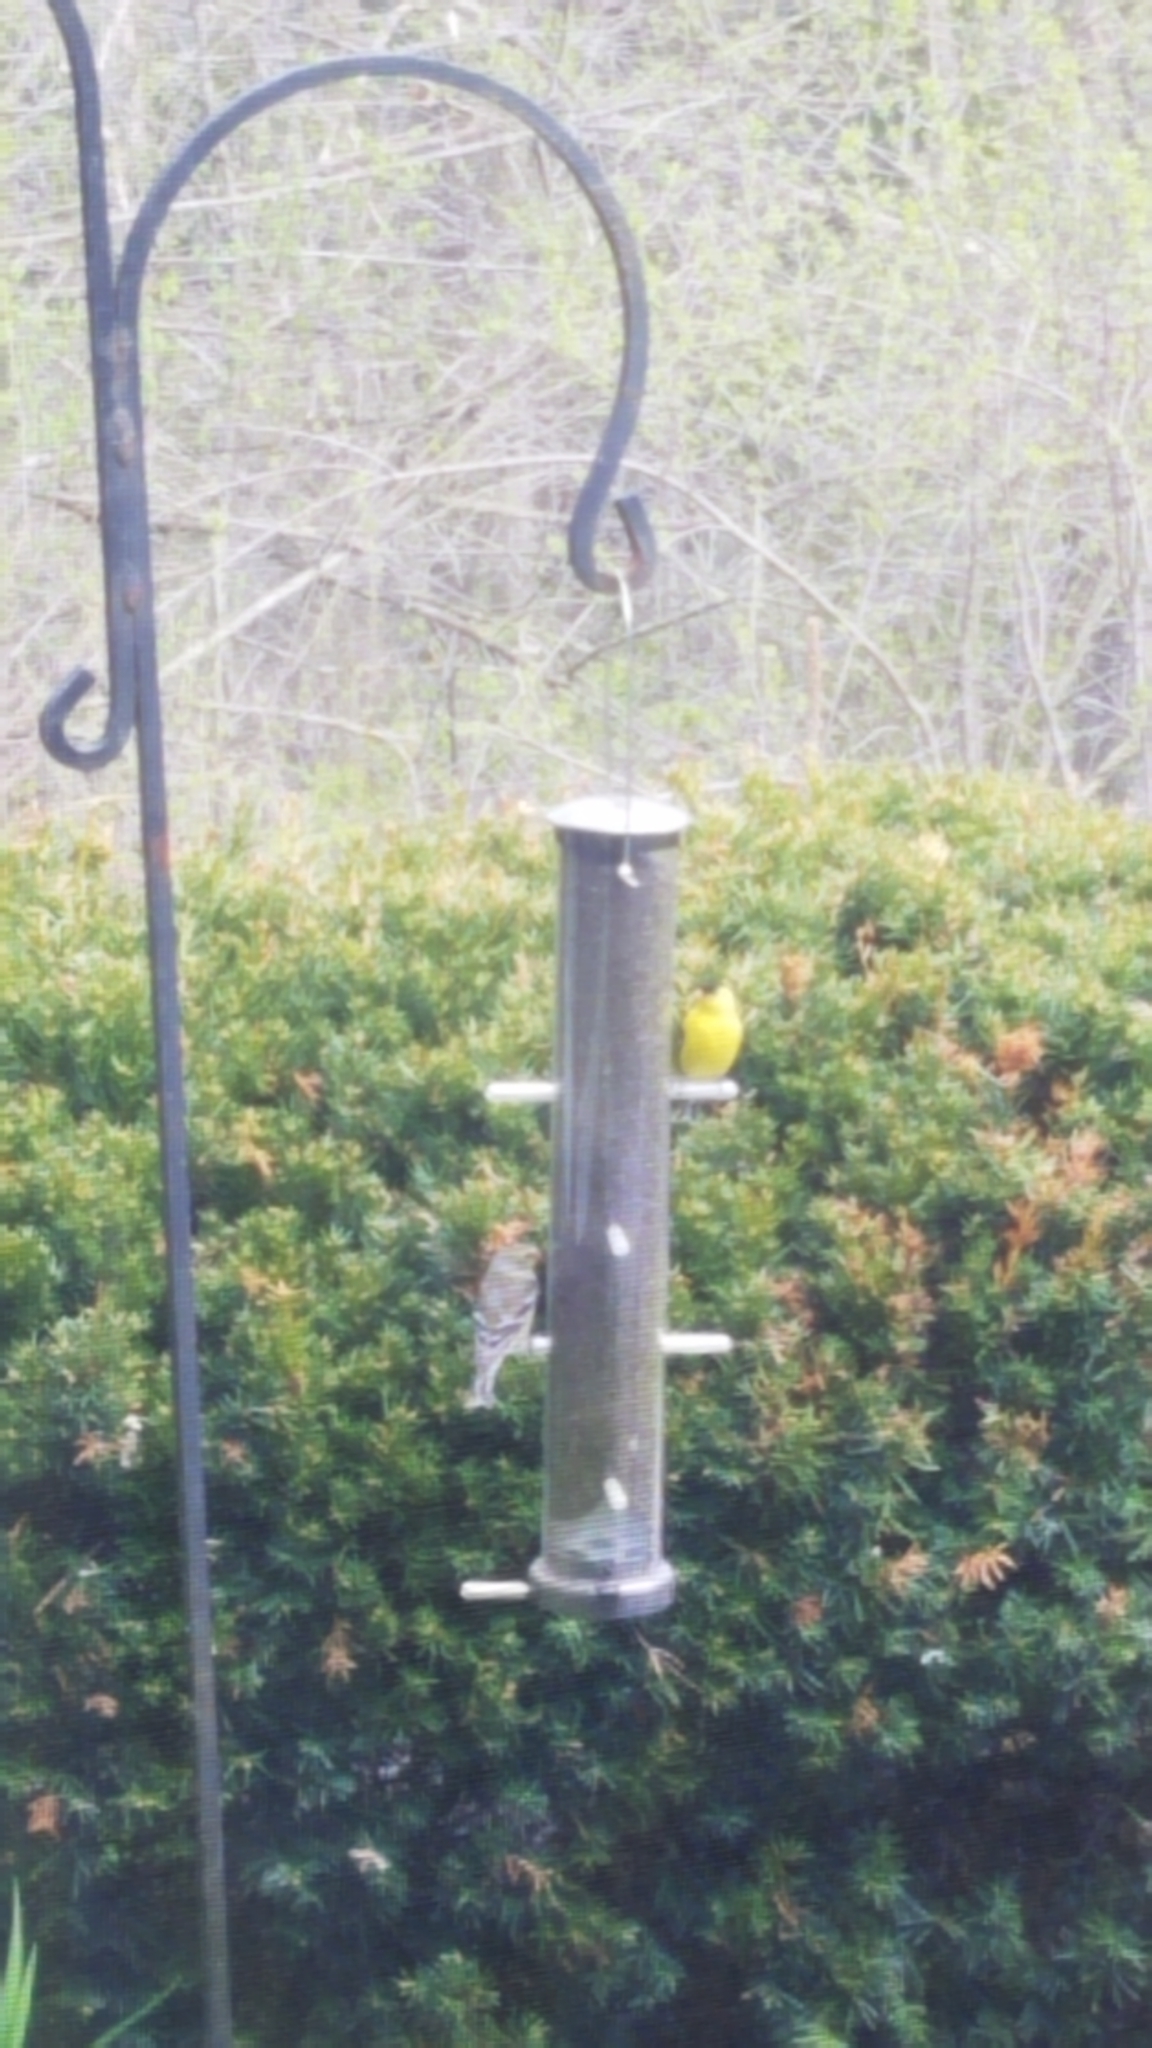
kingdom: Animalia
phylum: Chordata
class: Aves
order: Passeriformes
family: Fringillidae
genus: Spinus
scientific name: Spinus tristis
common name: American goldfinch
